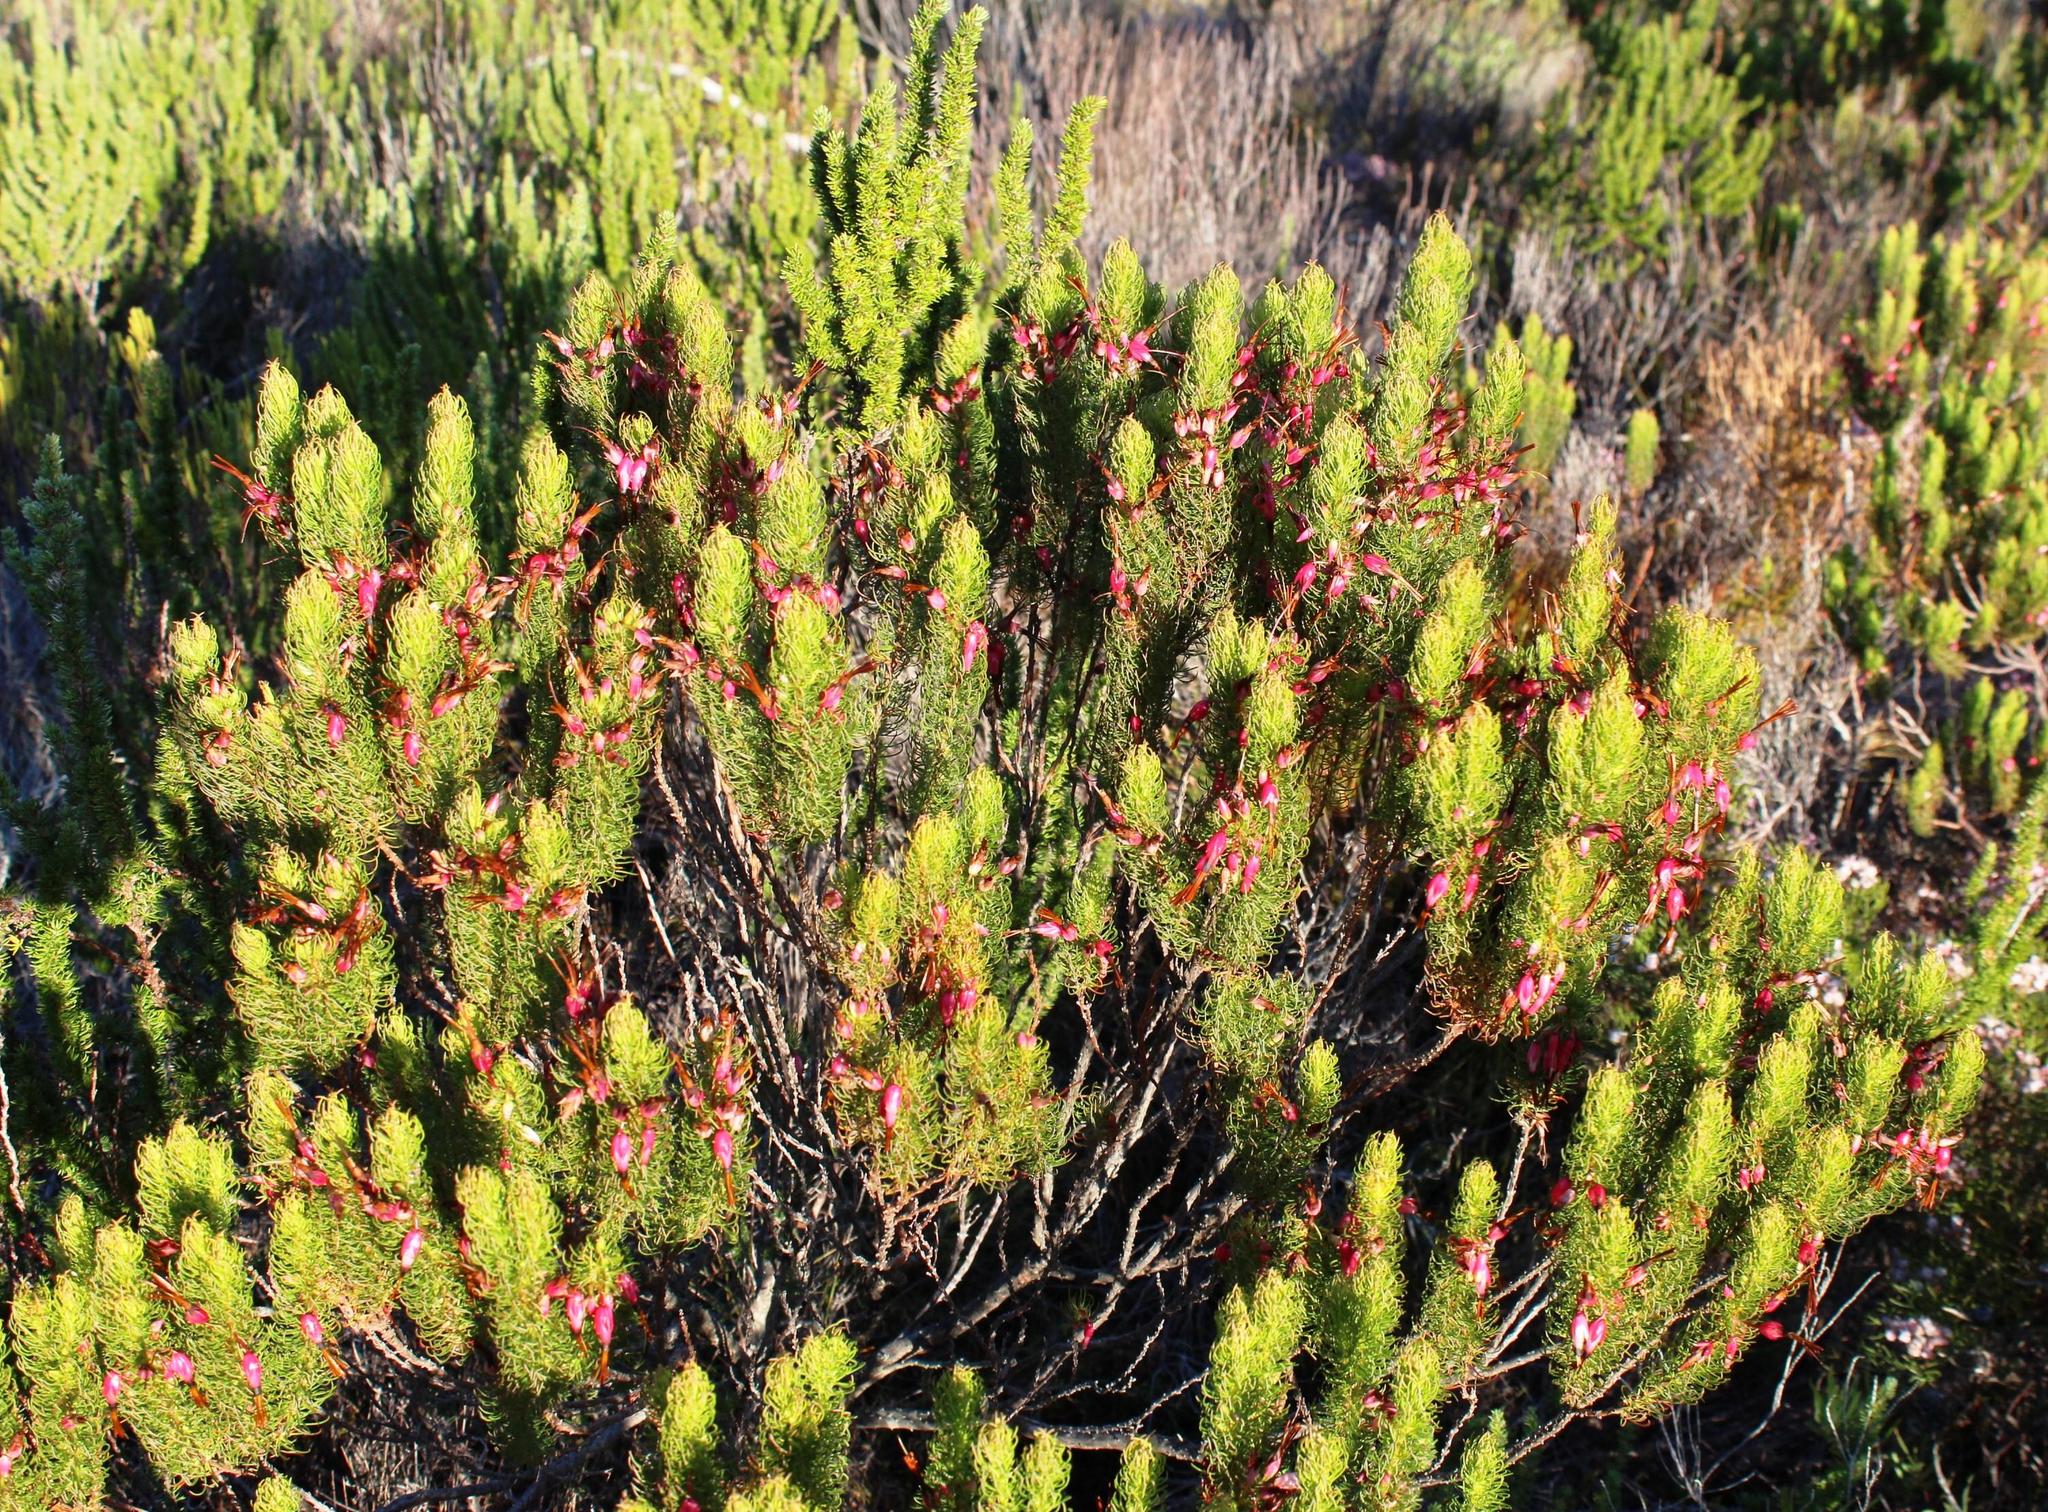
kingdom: Plantae
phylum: Tracheophyta
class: Magnoliopsida
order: Ericales
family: Ericaceae
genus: Erica
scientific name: Erica plukenetii
